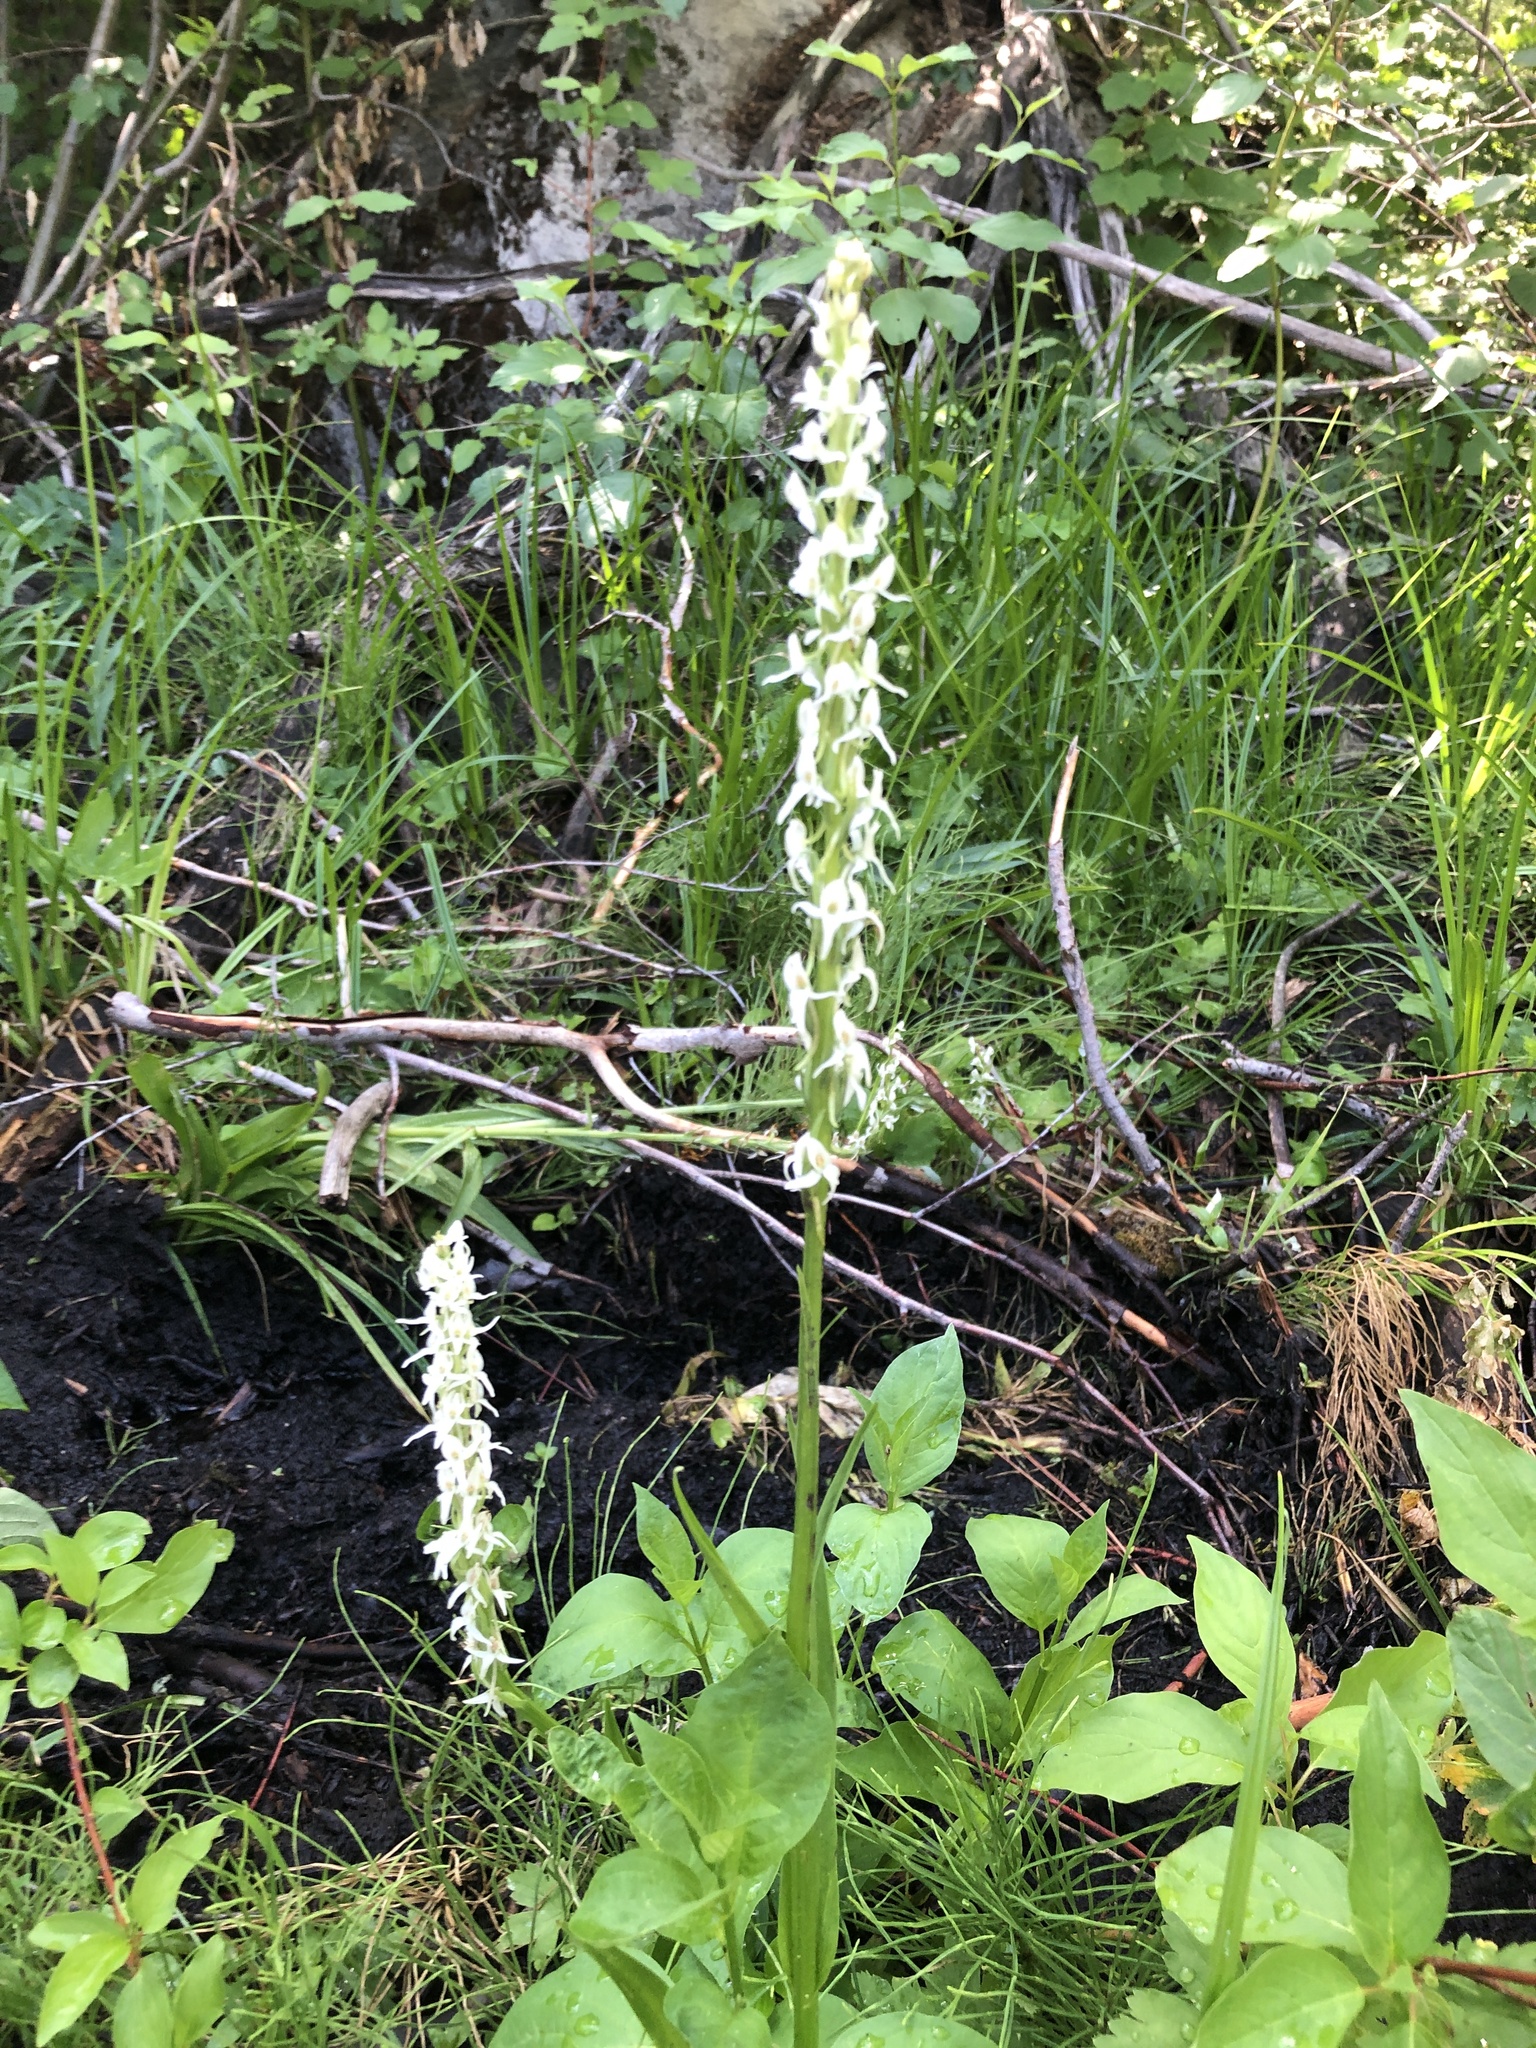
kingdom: Plantae
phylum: Tracheophyta
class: Liliopsida
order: Asparagales
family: Orchidaceae
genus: Platanthera
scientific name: Platanthera dilatata
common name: Bog candles
